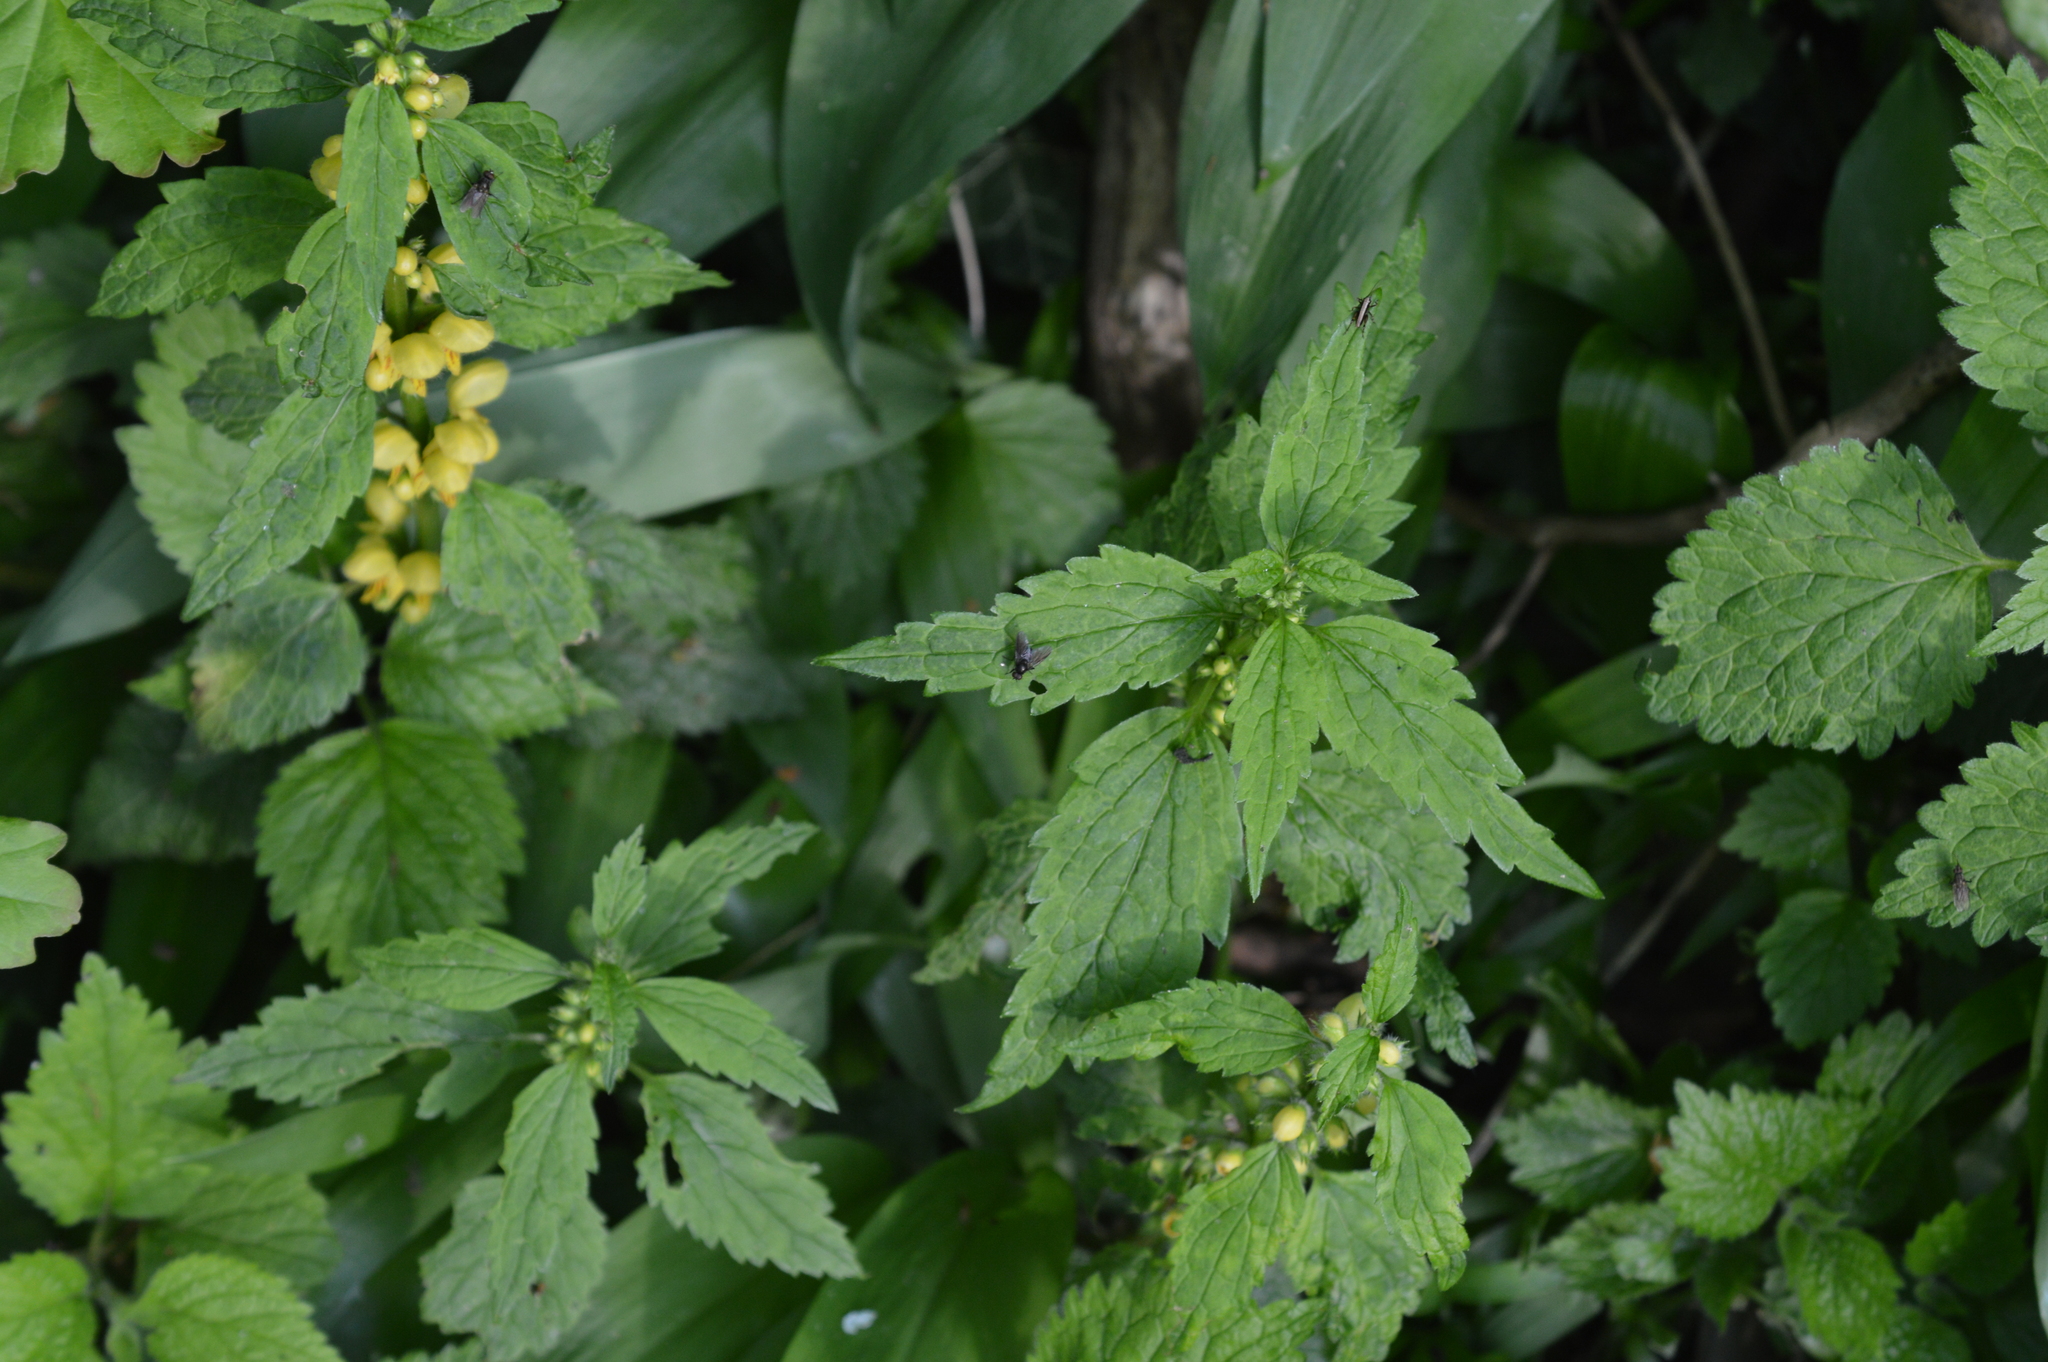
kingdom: Plantae
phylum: Tracheophyta
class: Magnoliopsida
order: Lamiales
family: Lamiaceae
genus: Lamium
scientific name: Lamium galeobdolon
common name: Yellow archangel
